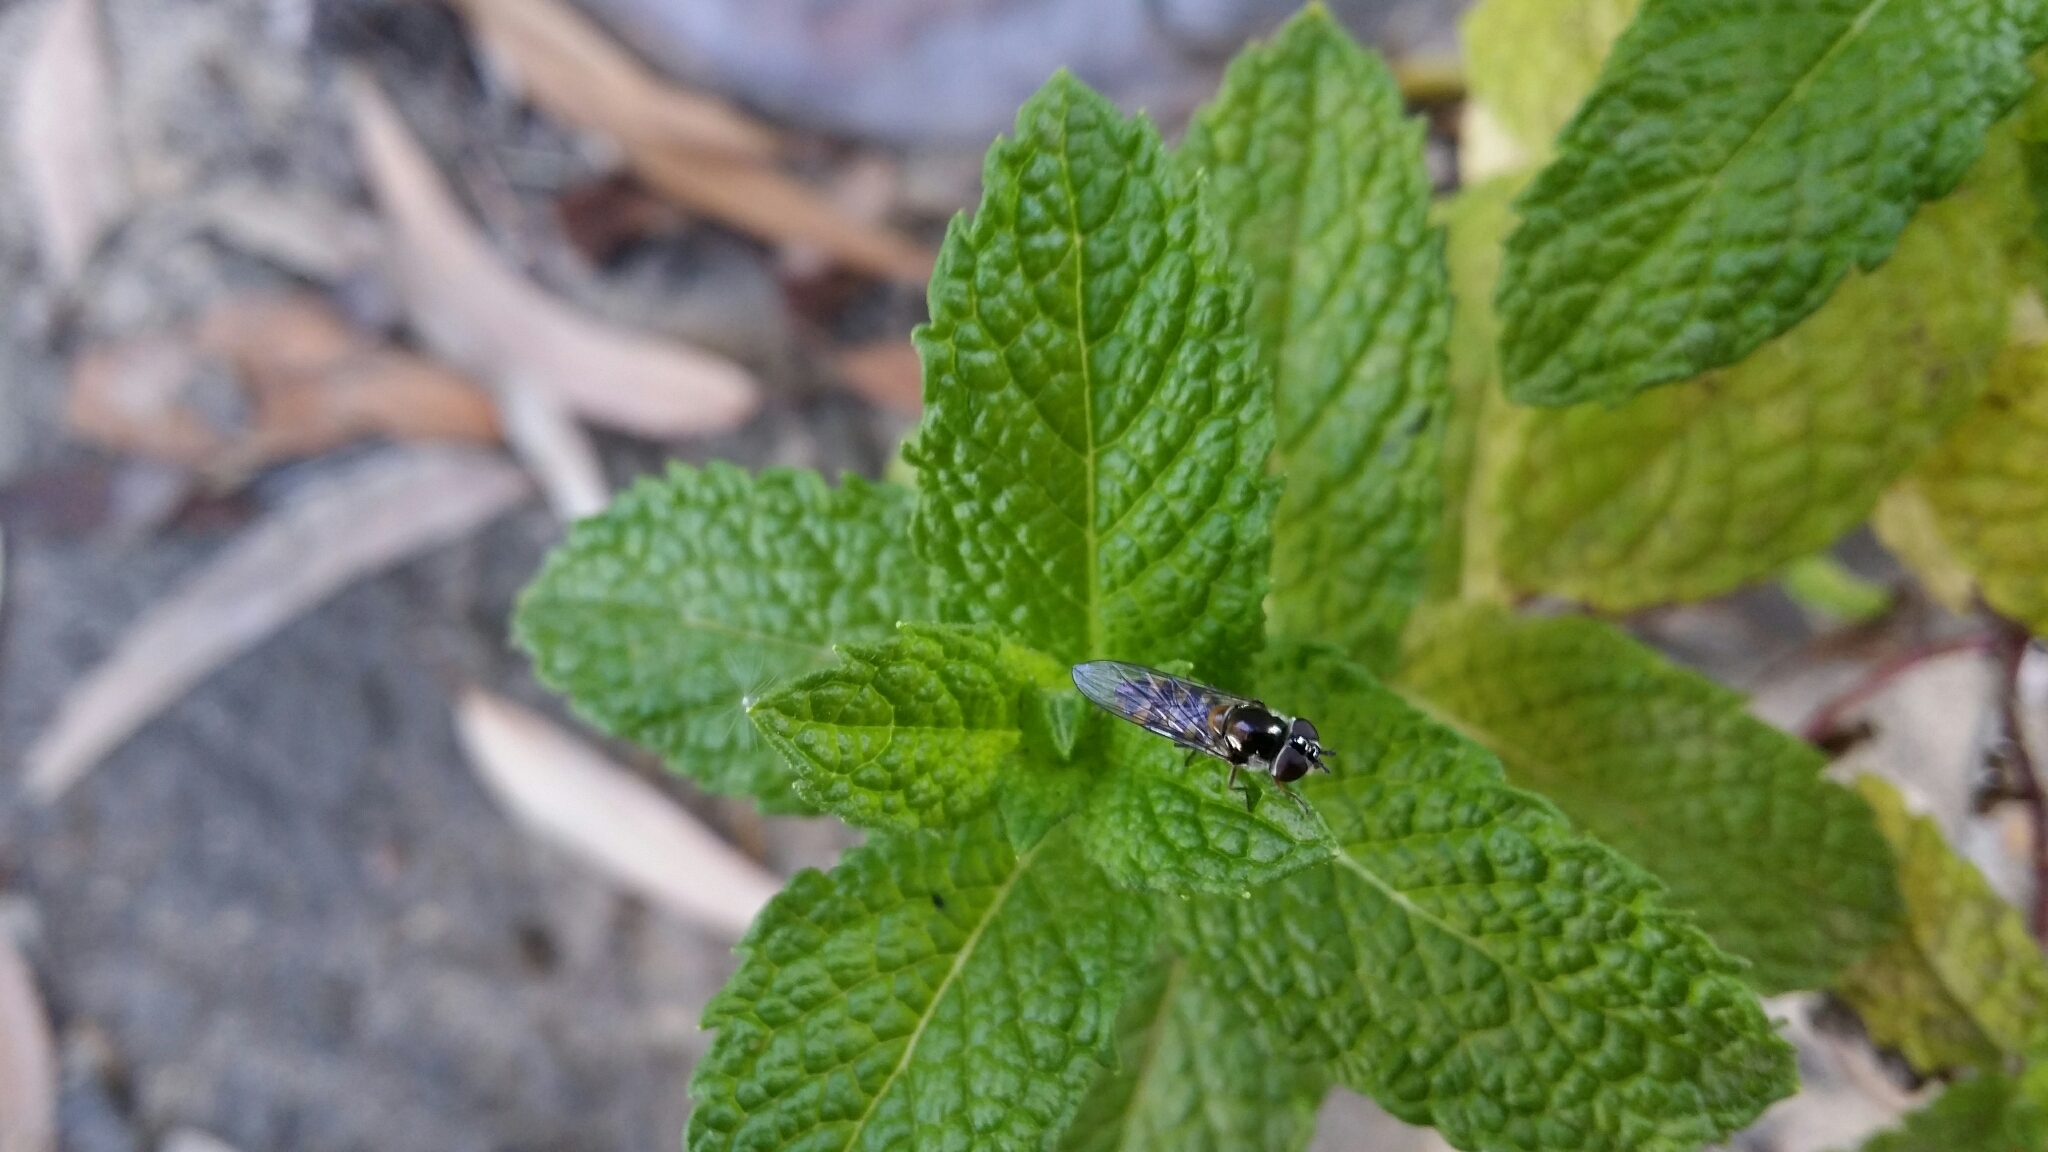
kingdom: Animalia
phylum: Arthropoda
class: Insecta
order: Diptera
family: Syrphidae
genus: Melangyna
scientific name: Melangyna viridiceps
